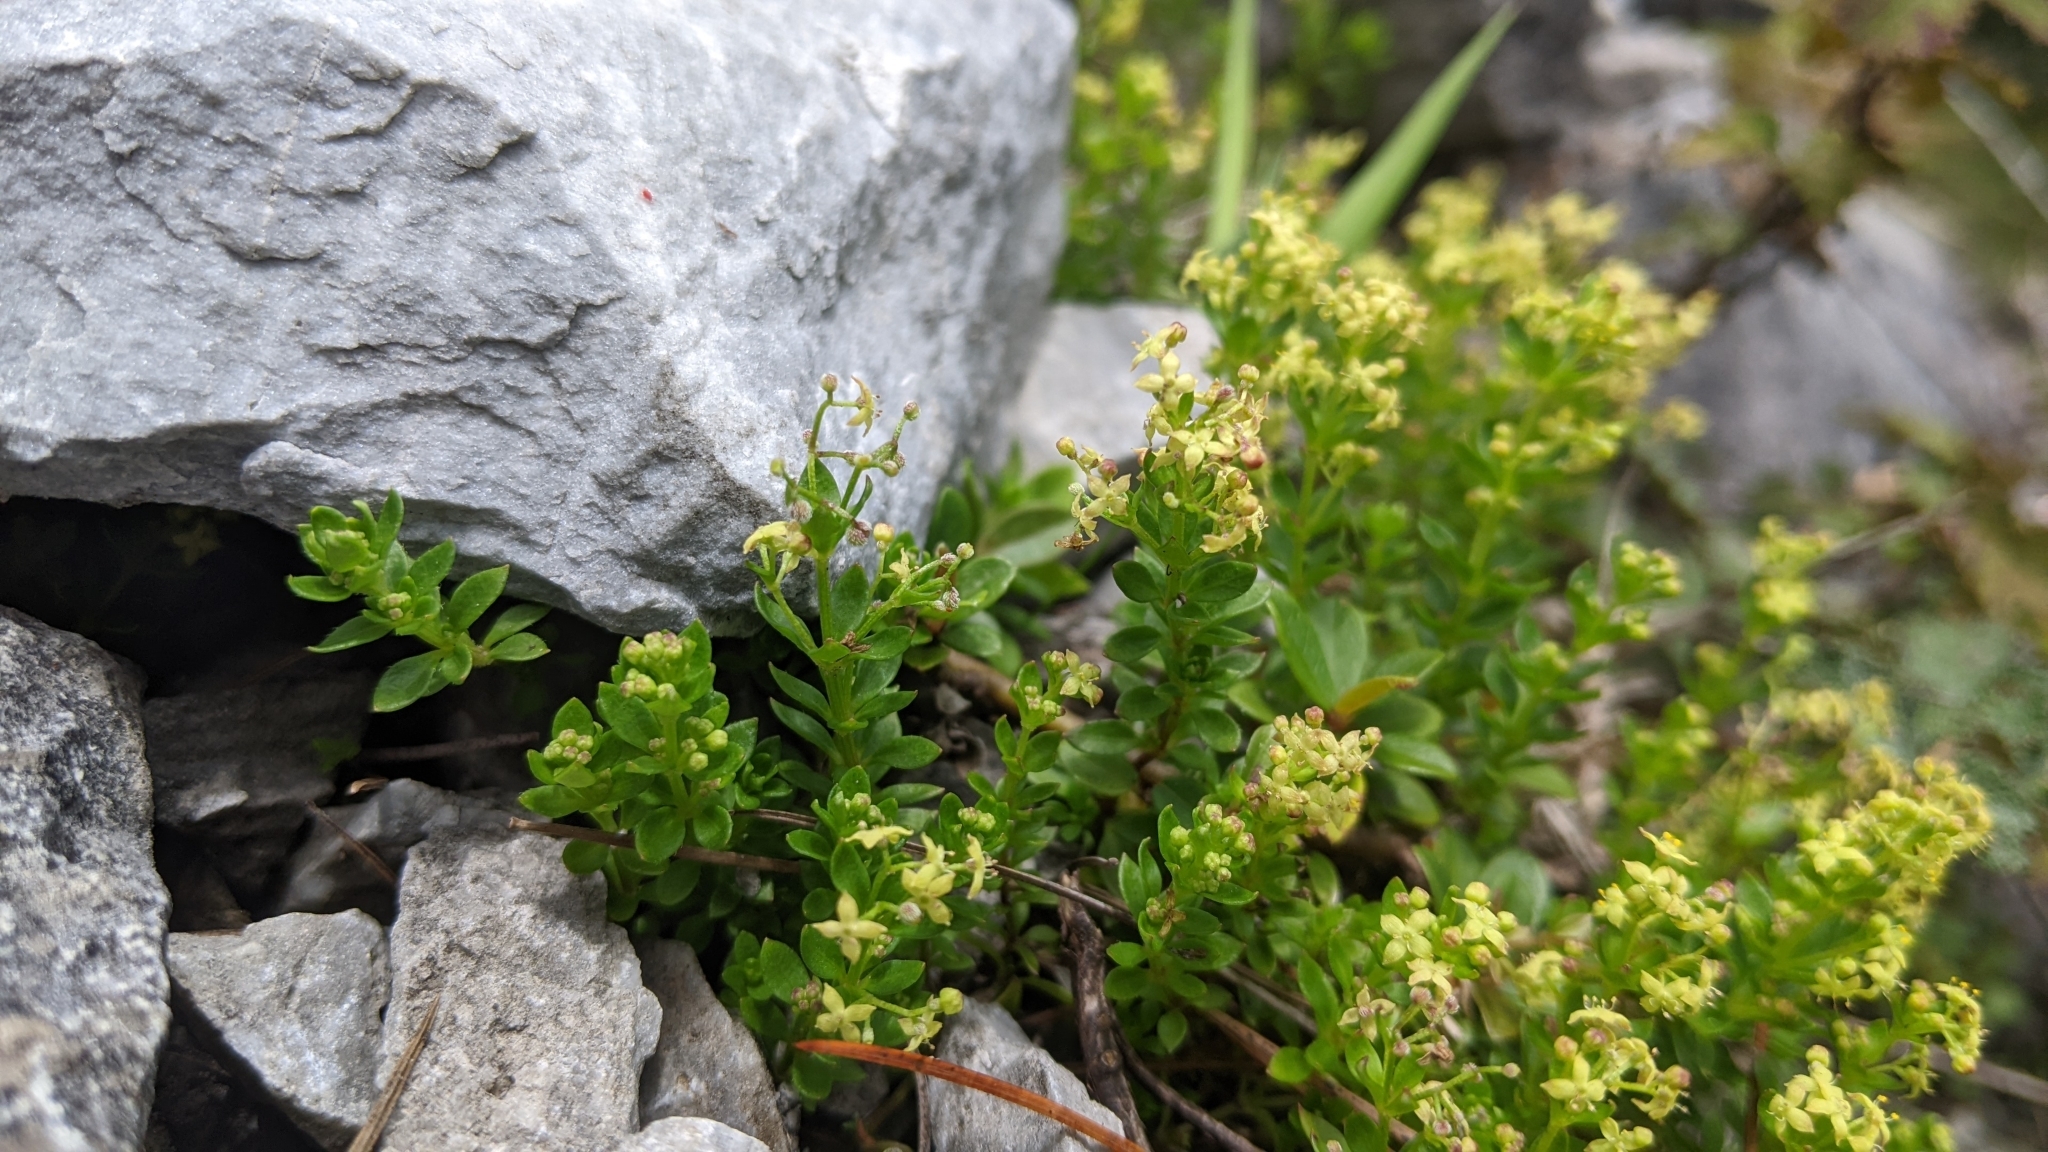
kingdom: Plantae
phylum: Tracheophyta
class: Magnoliopsida
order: Gentianales
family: Rubiaceae
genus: Galium
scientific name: Galium tarokoense
